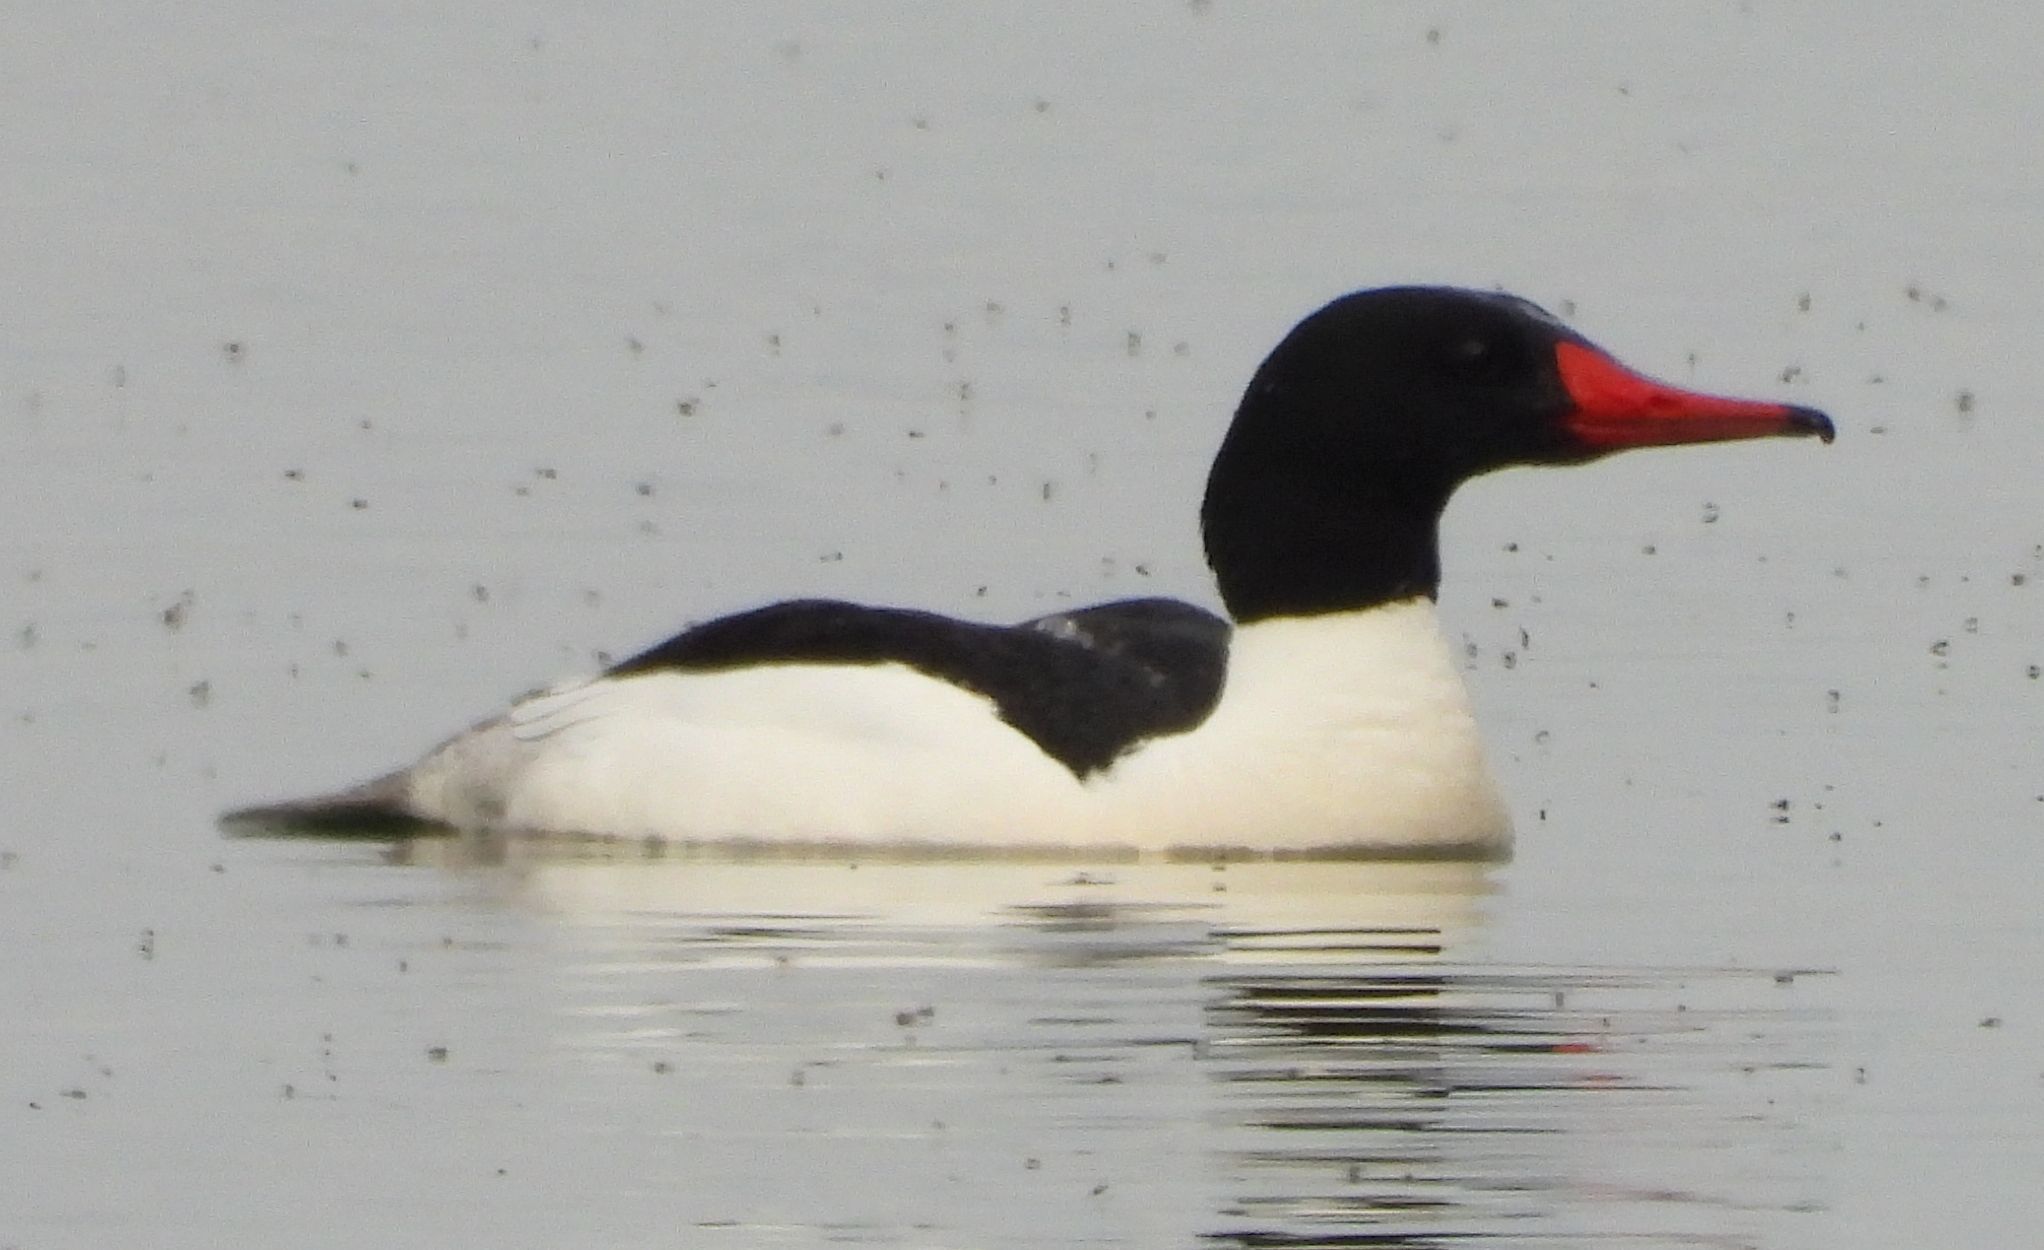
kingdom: Animalia
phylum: Chordata
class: Aves
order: Anseriformes
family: Anatidae
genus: Mergus
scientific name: Mergus merganser
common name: Common merganser
